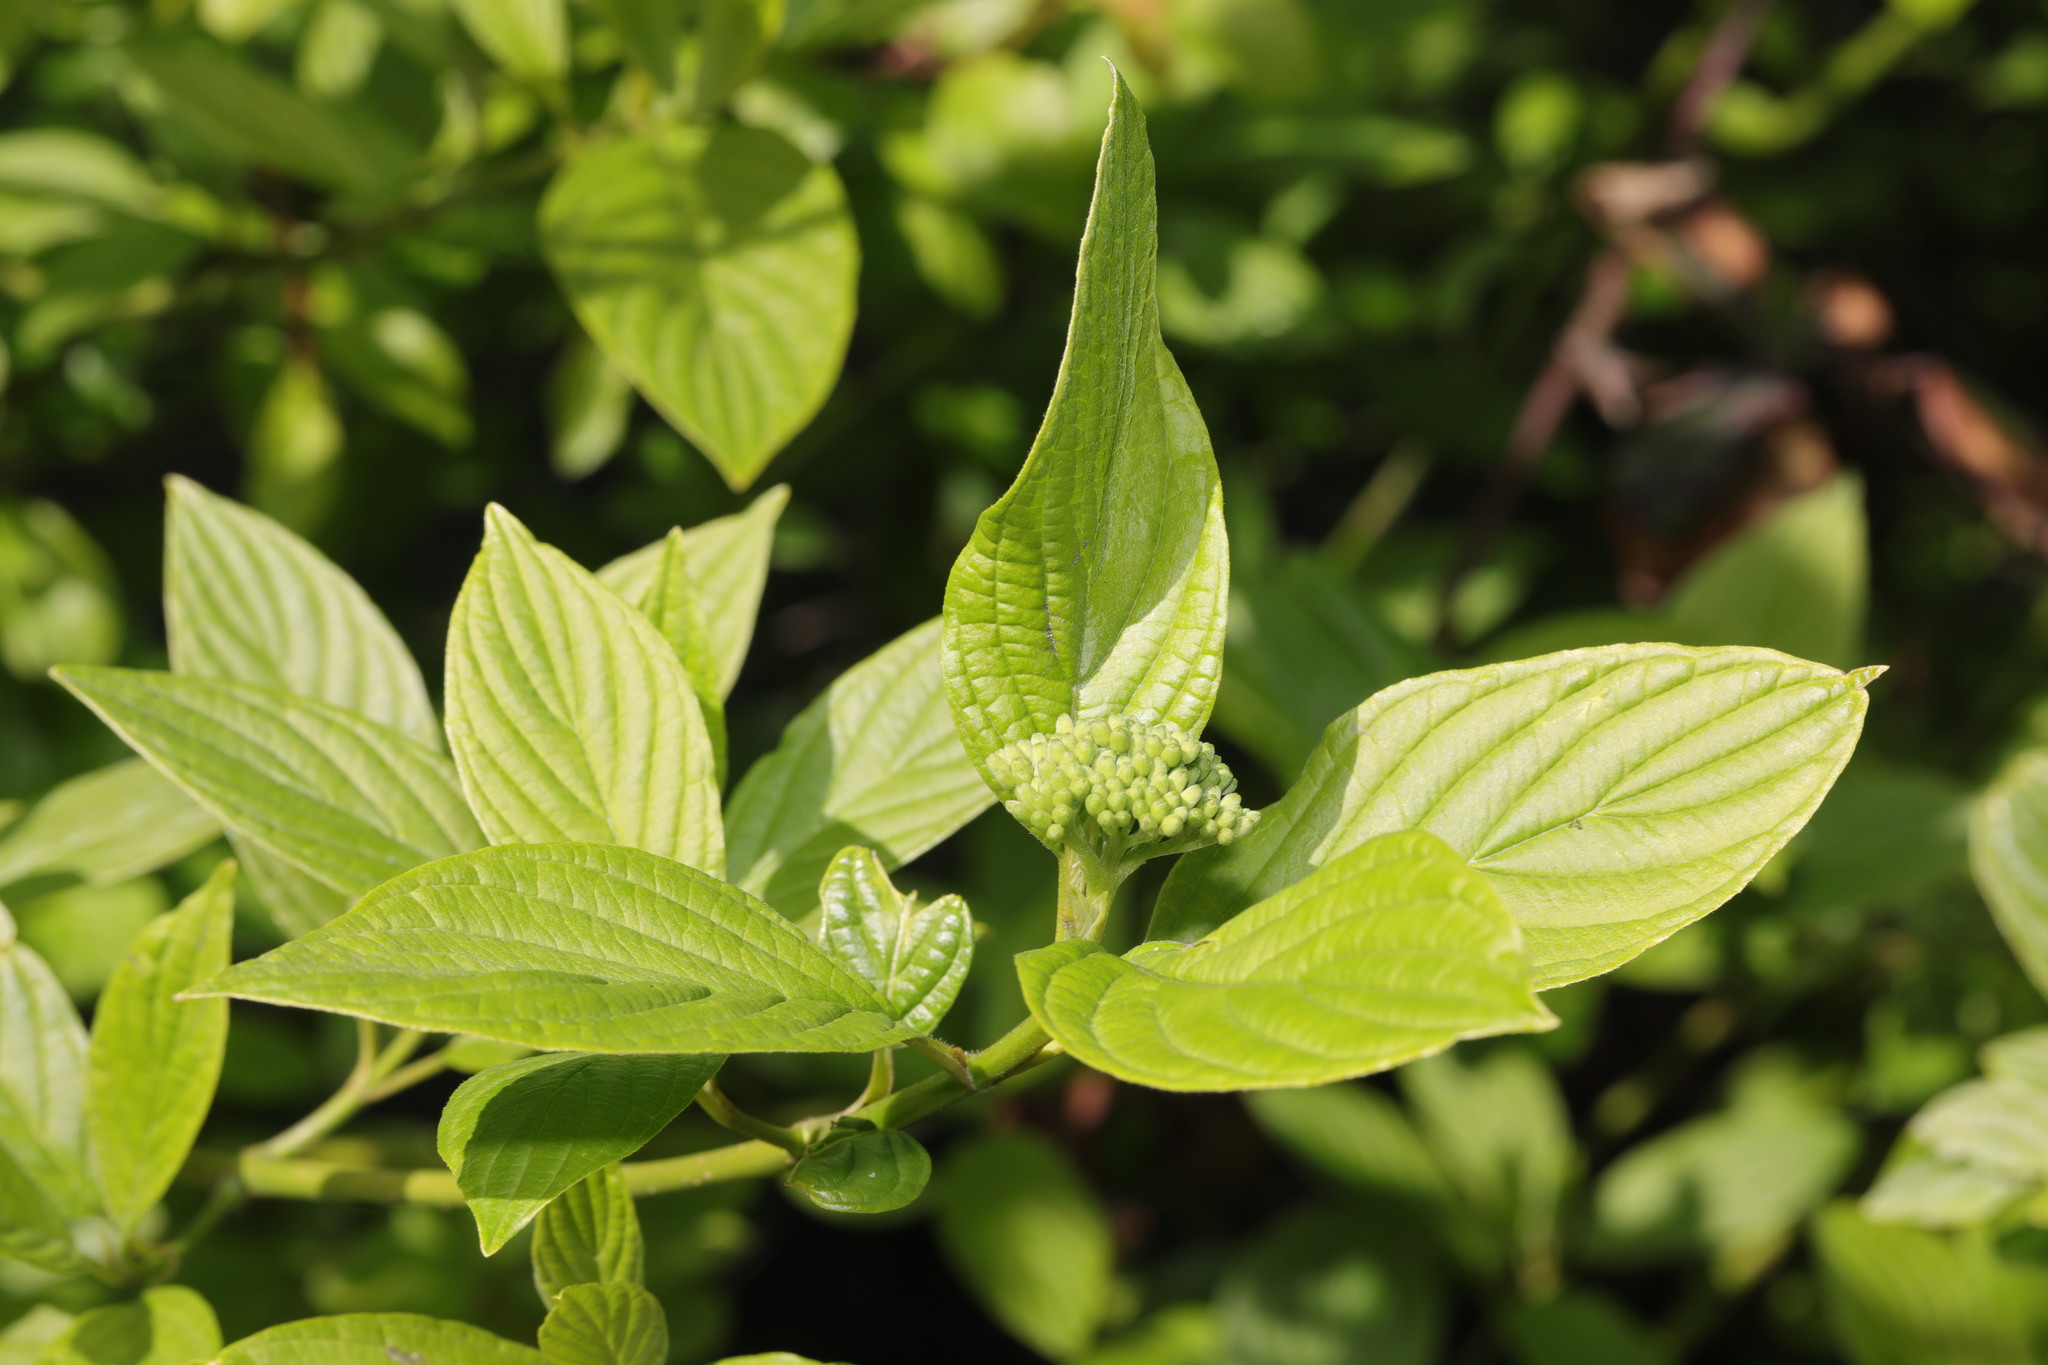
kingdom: Plantae
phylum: Tracheophyta
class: Magnoliopsida
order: Cornales
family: Cornaceae
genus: Cornus
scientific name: Cornus sanguinea
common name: Dogwood
